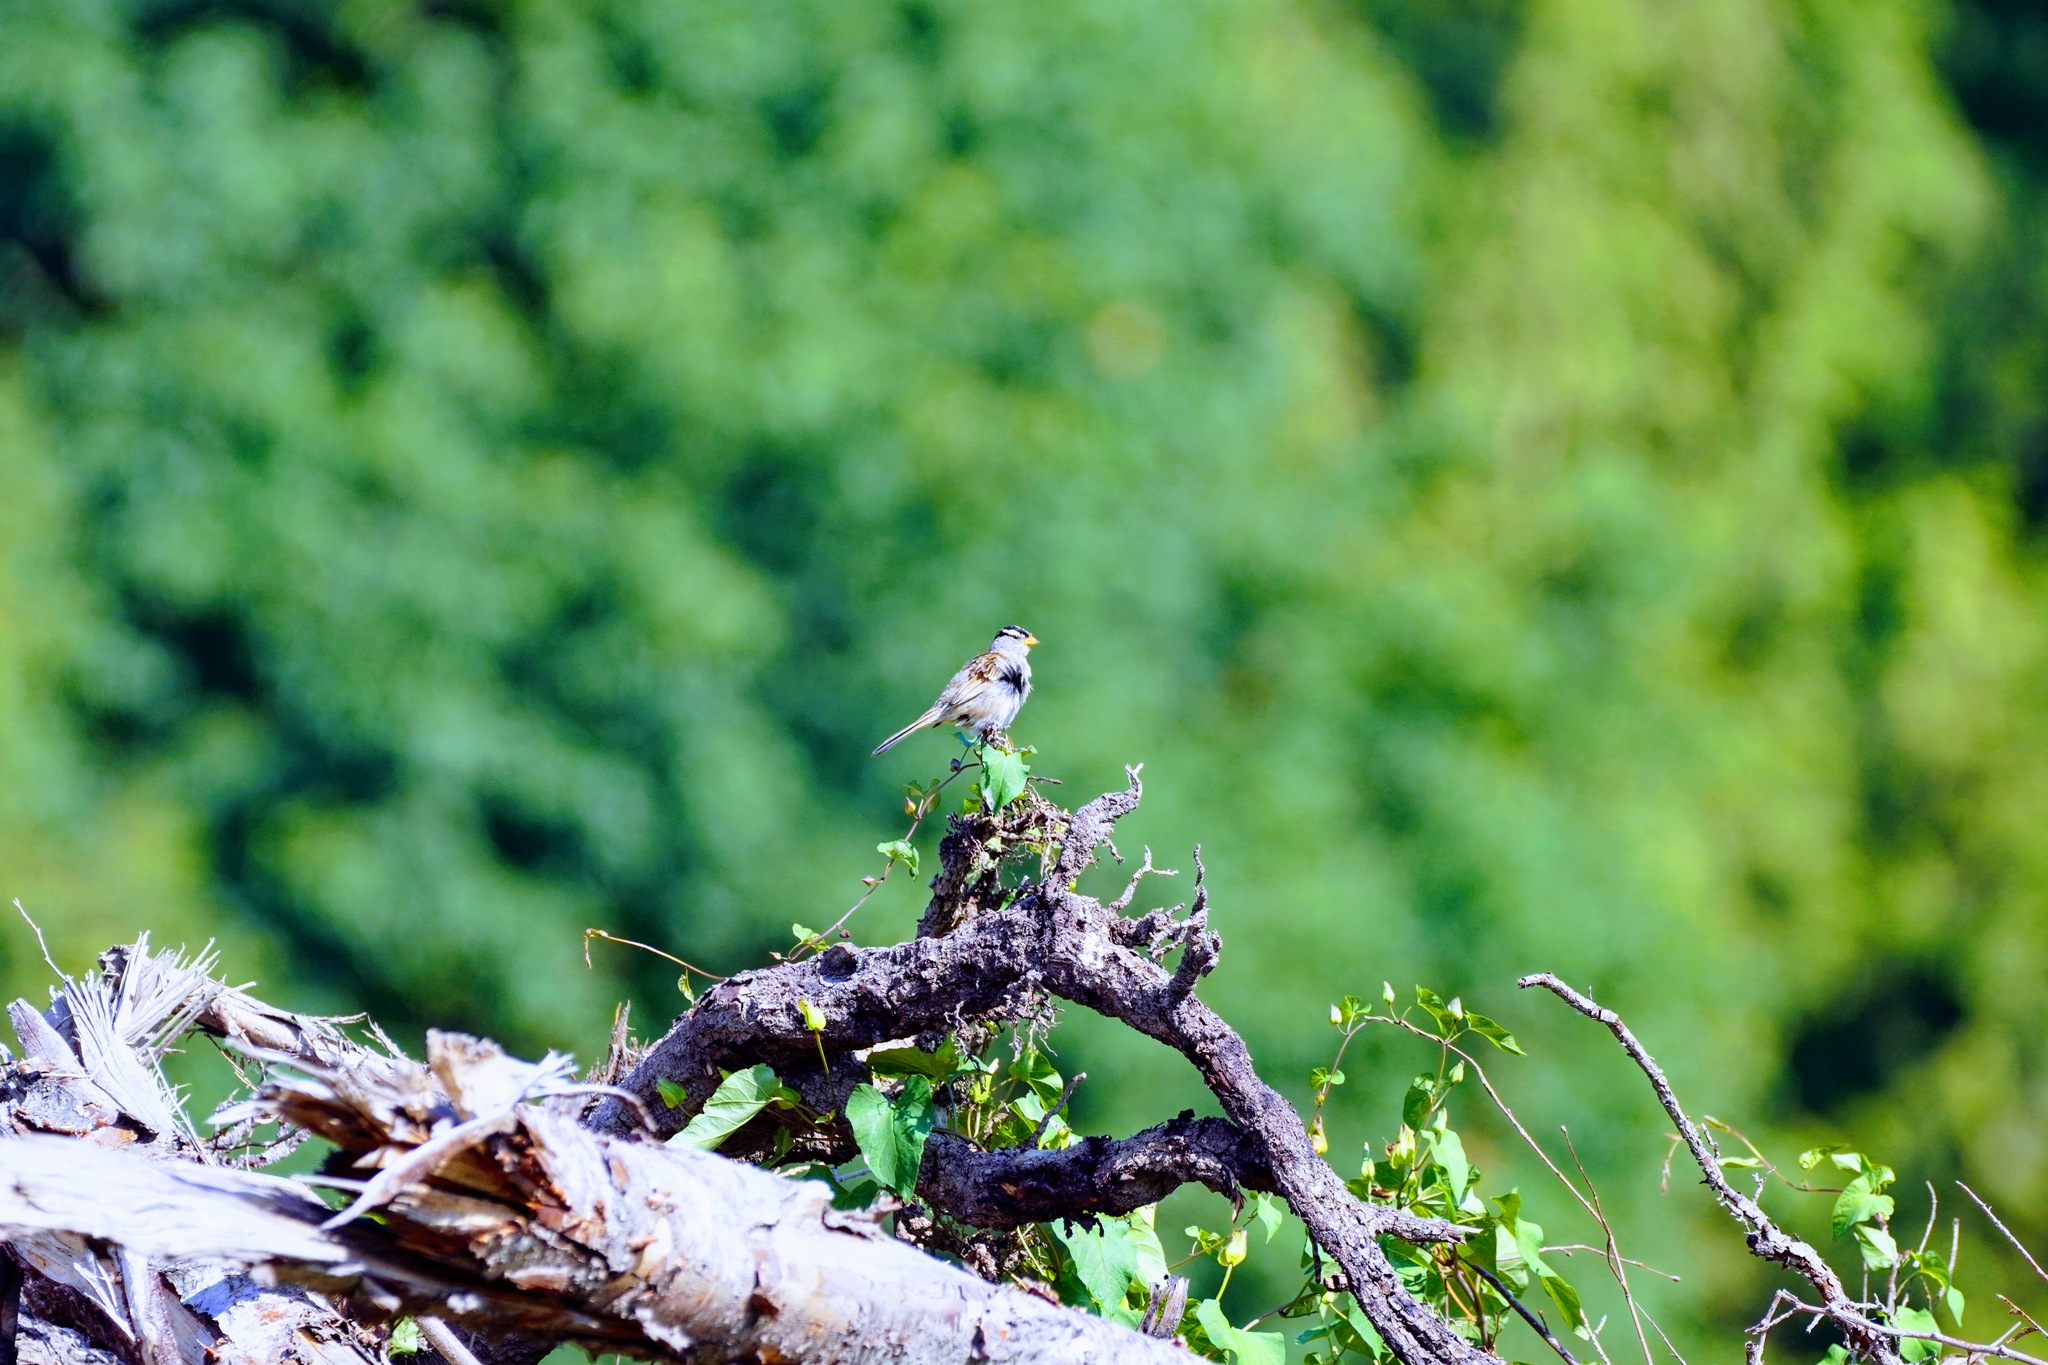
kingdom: Animalia
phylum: Chordata
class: Aves
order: Passeriformes
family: Passerellidae
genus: Zonotrichia
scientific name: Zonotrichia leucophrys
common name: White-crowned sparrow
